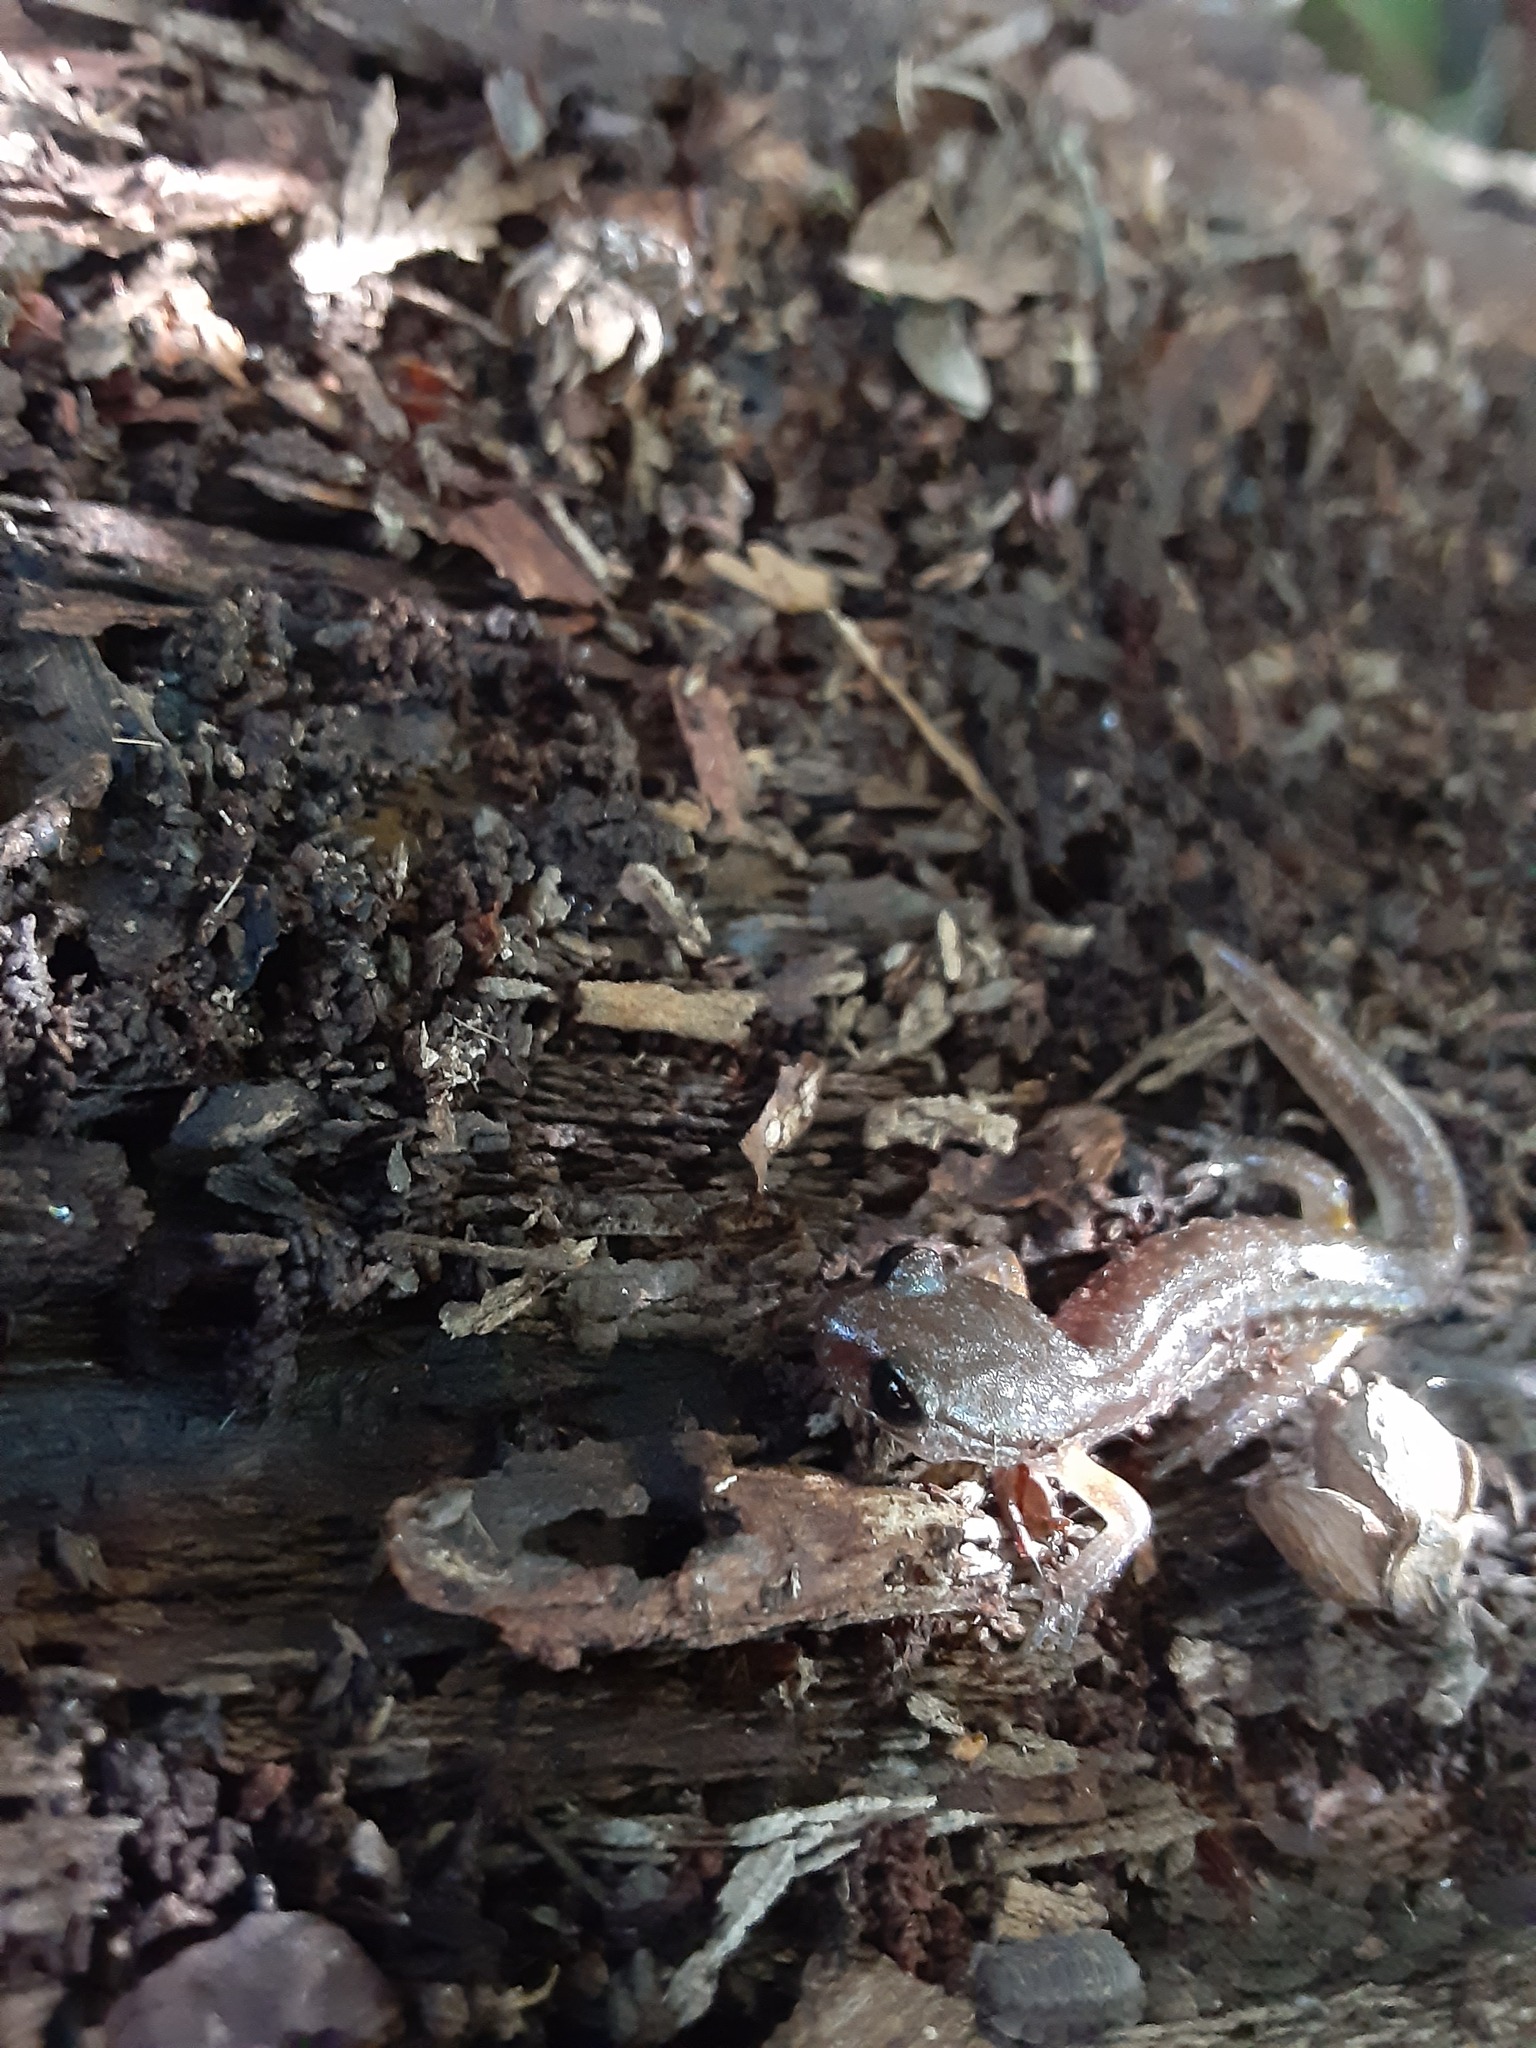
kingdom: Animalia
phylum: Chordata
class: Amphibia
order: Caudata
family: Plethodontidae
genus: Ensatina
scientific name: Ensatina eschscholtzii
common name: Ensatina
